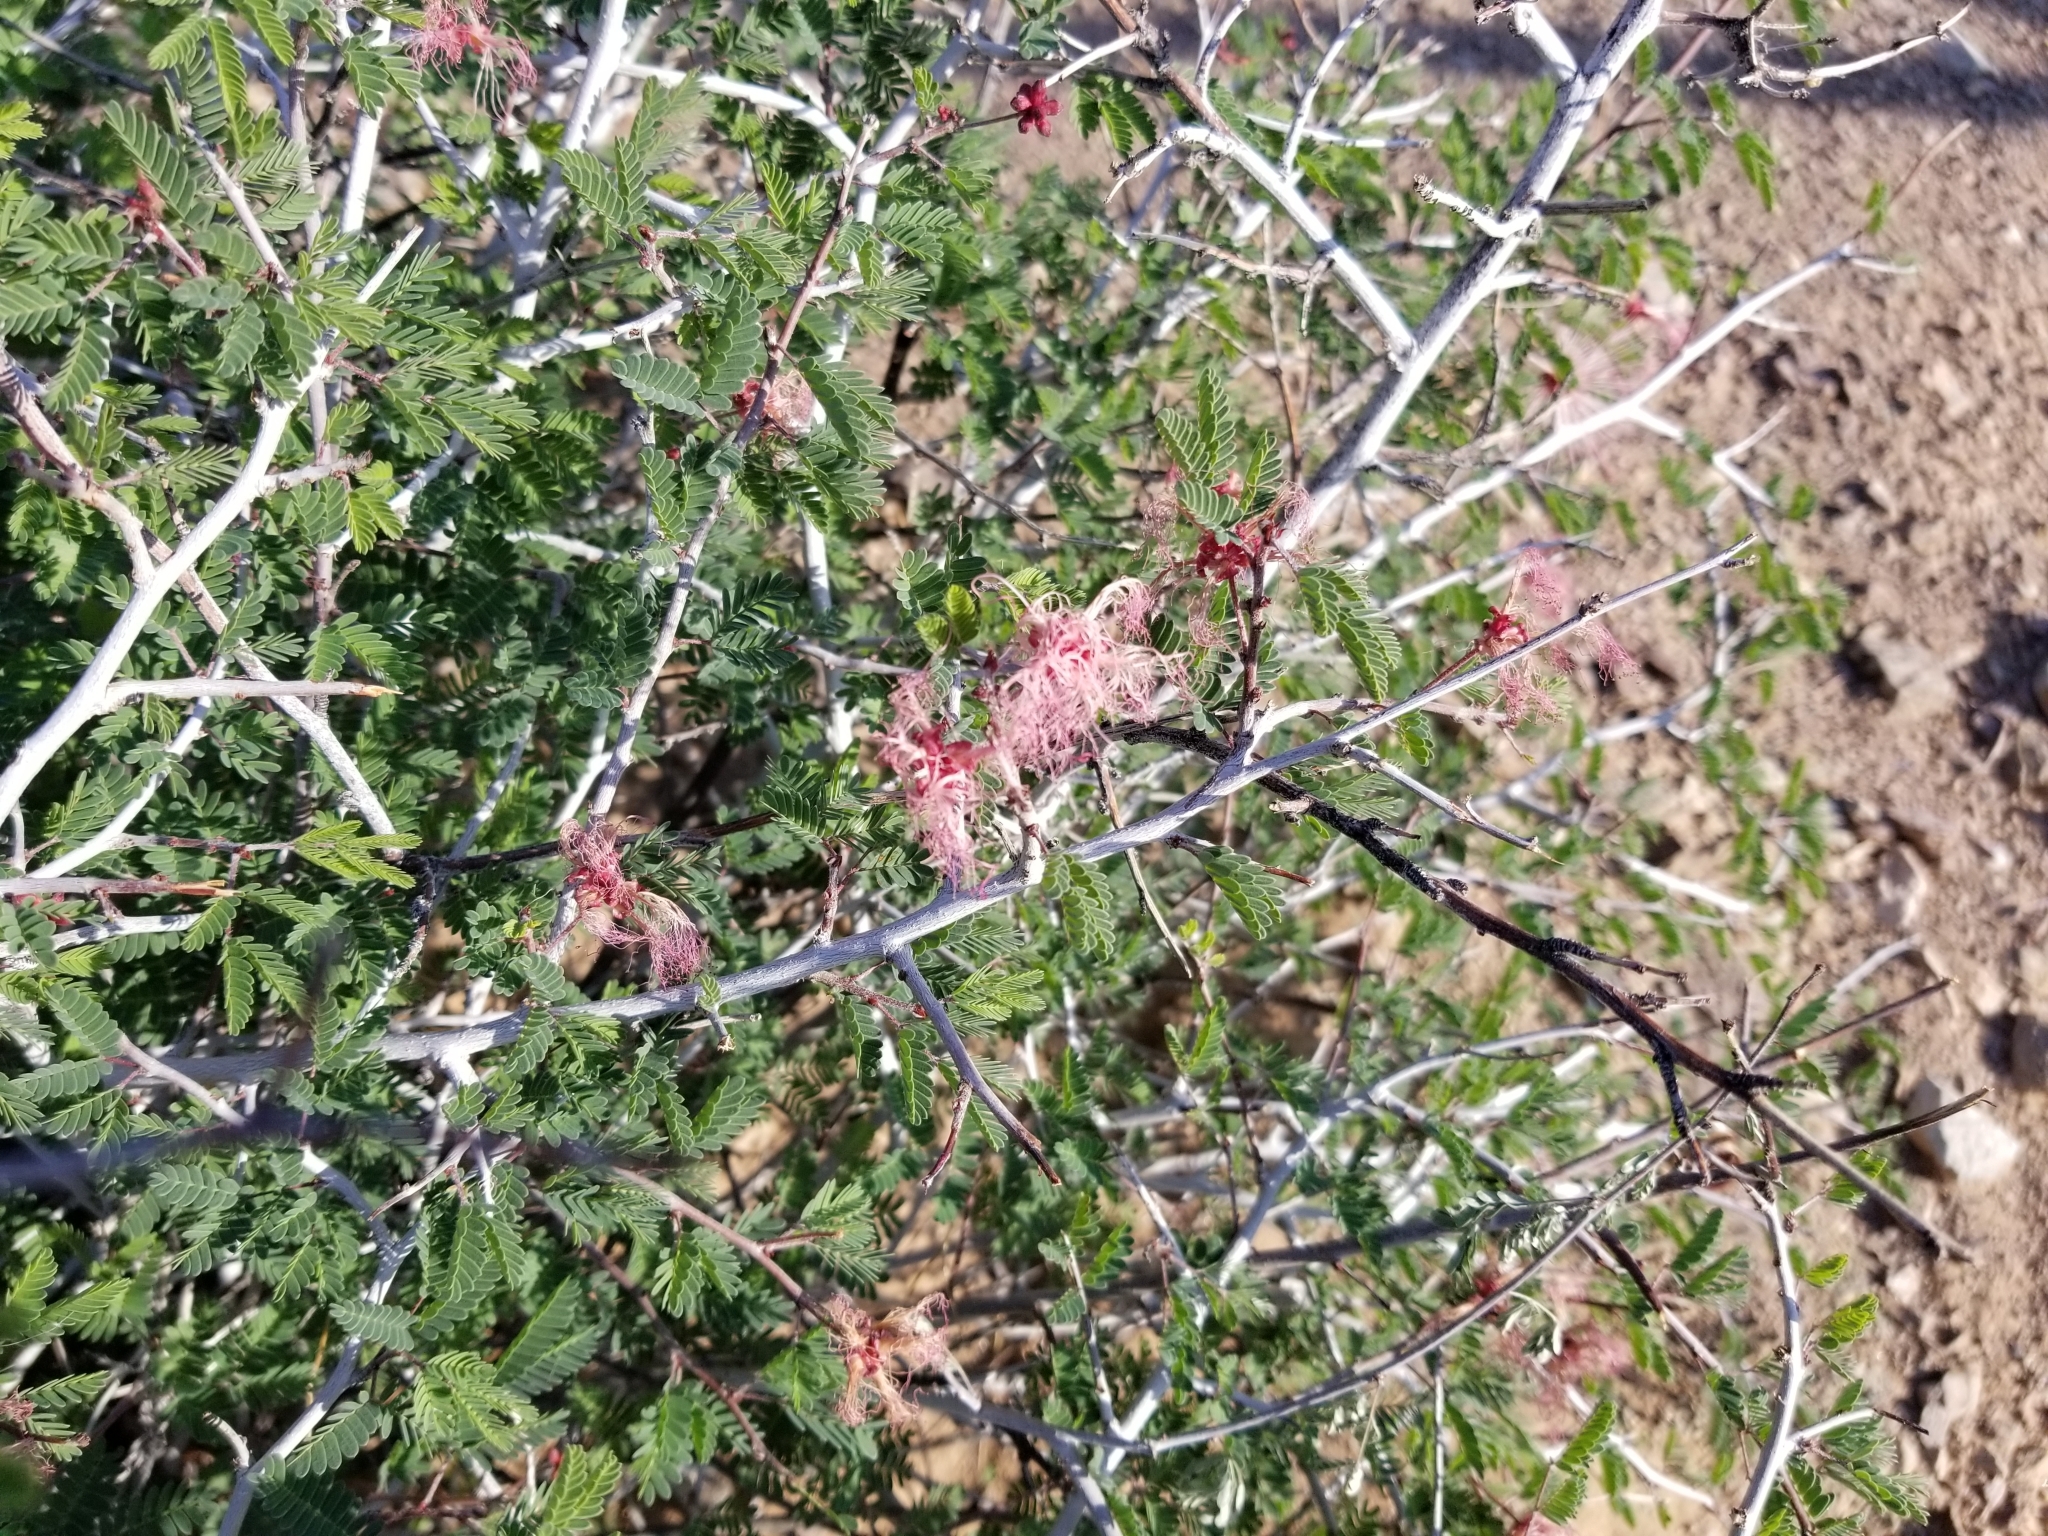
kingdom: Plantae
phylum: Tracheophyta
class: Magnoliopsida
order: Fabales
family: Fabaceae
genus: Calliandra
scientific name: Calliandra eriophylla
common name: Fairy-duster
